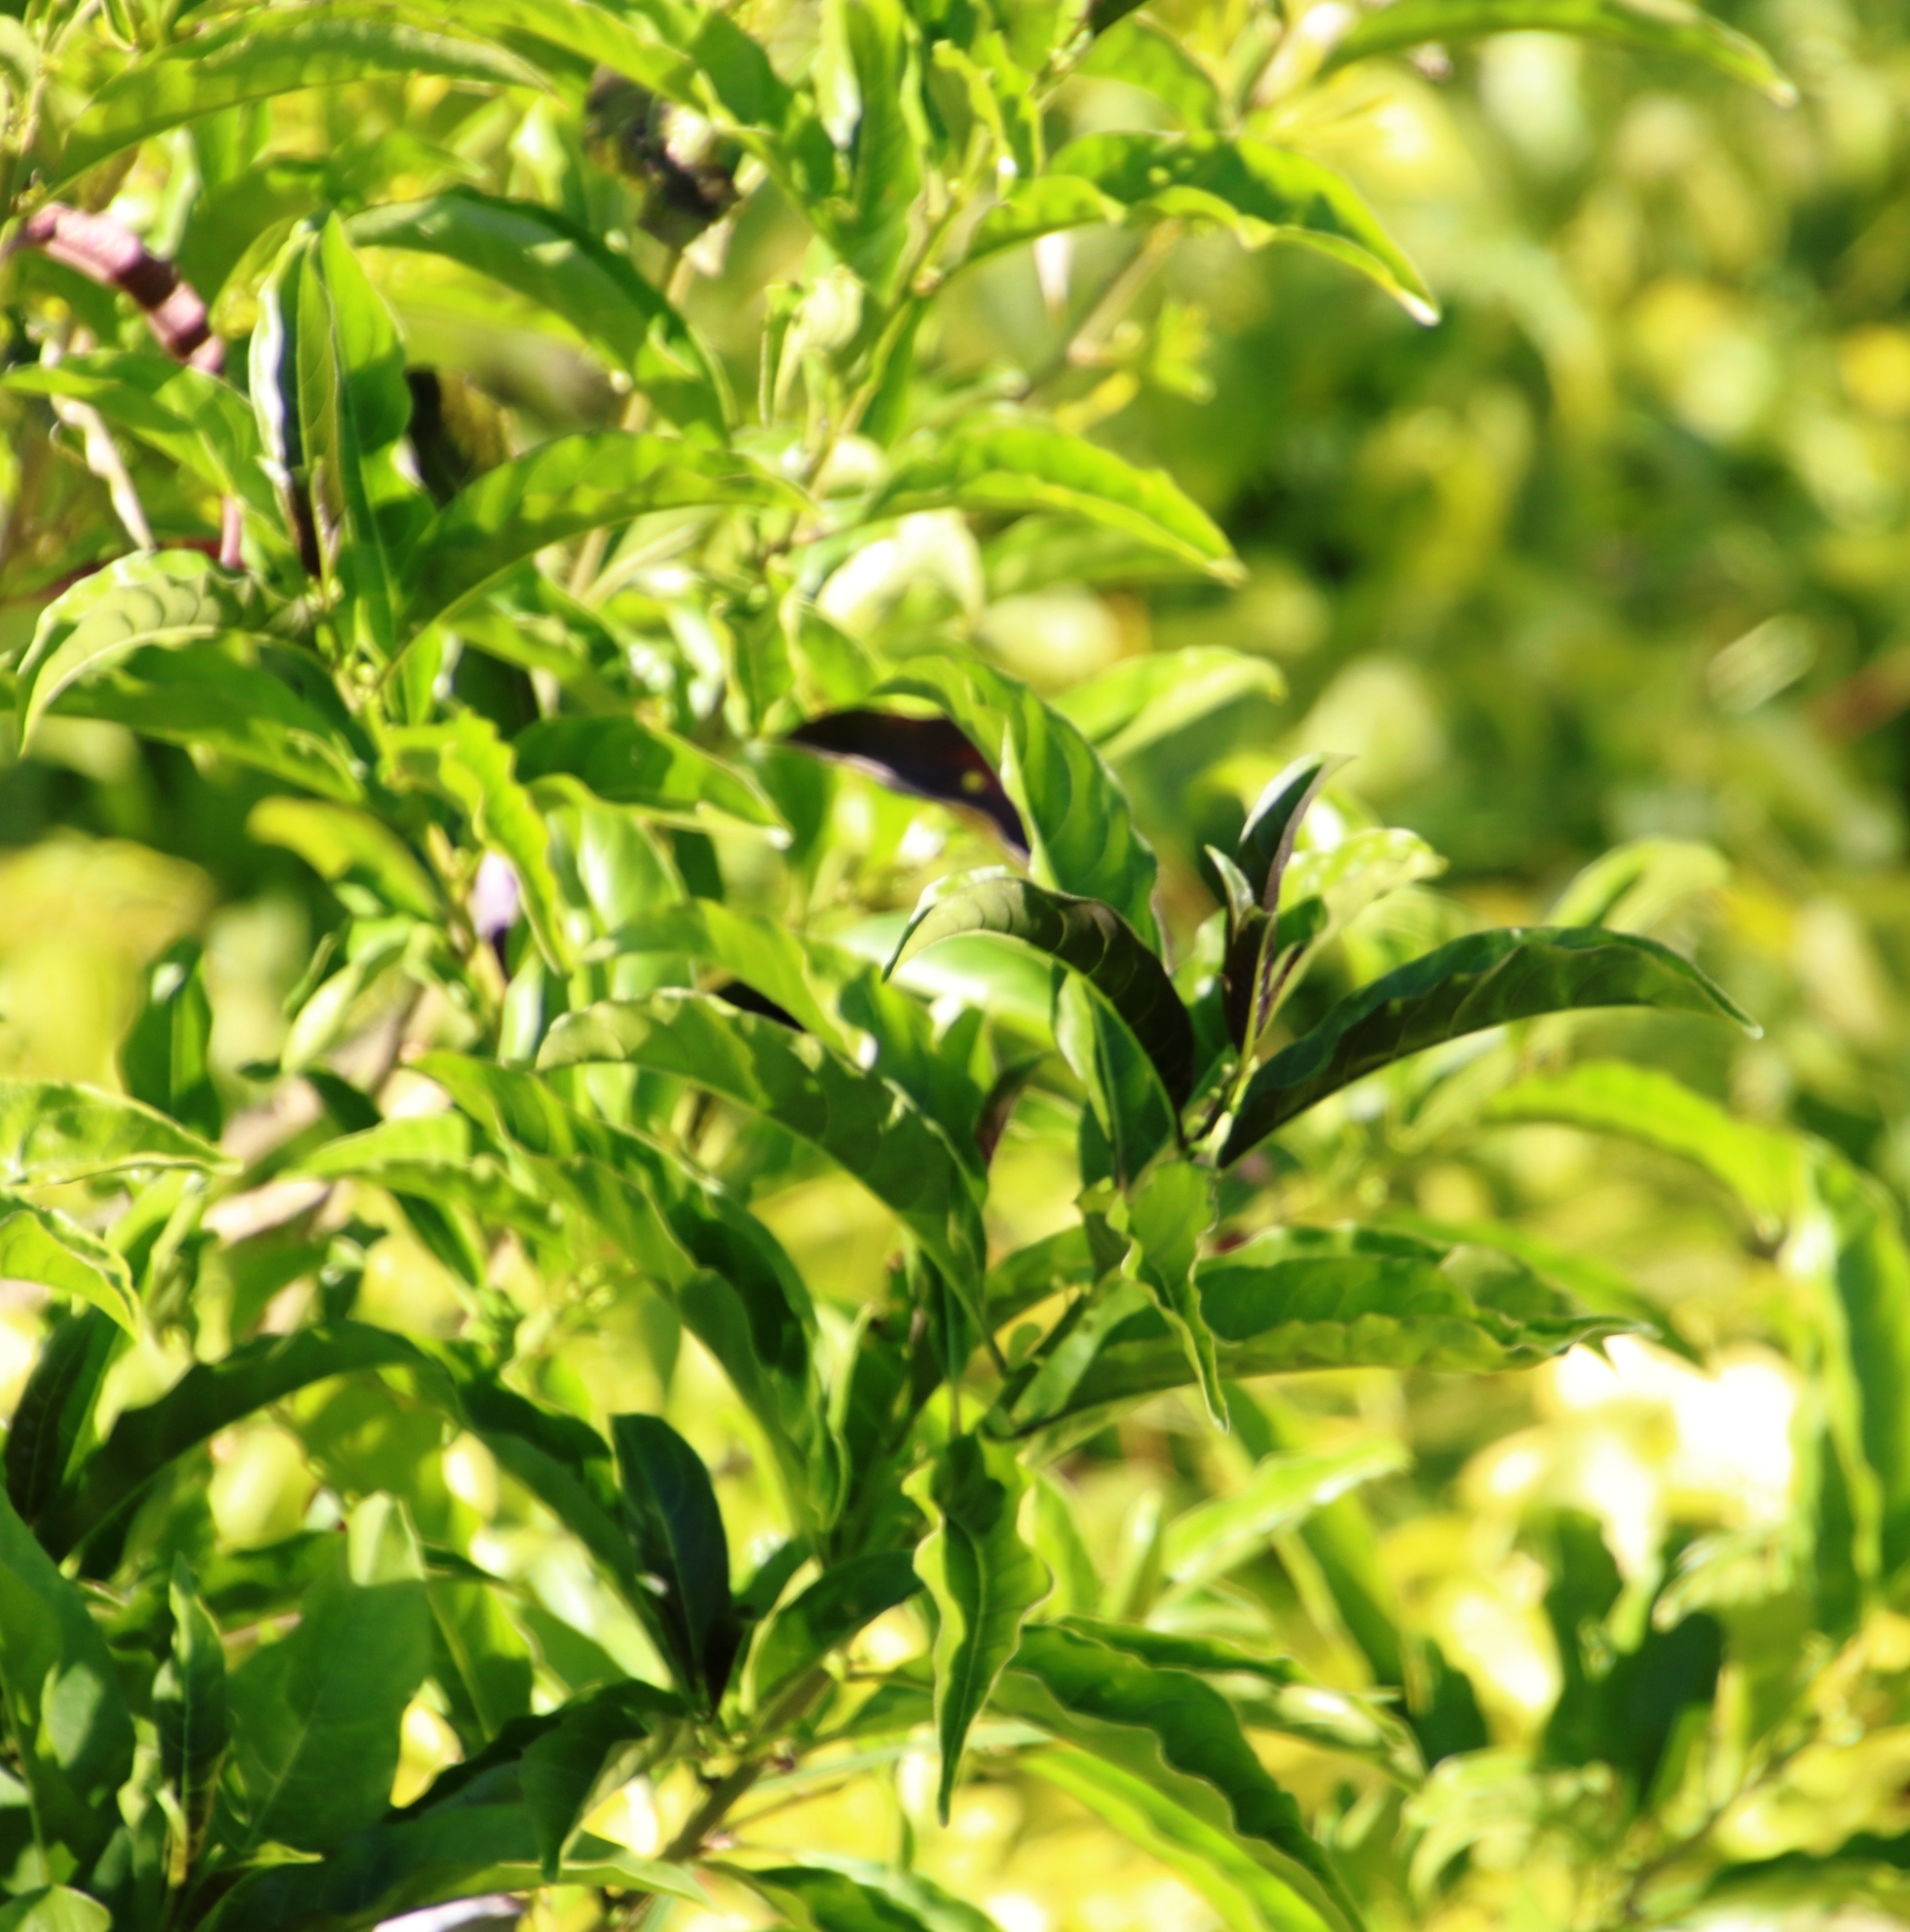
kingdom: Plantae
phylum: Tracheophyta
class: Magnoliopsida
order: Solanales
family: Solanaceae
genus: Cestrum
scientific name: Cestrum laevigatum
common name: Inkberry
